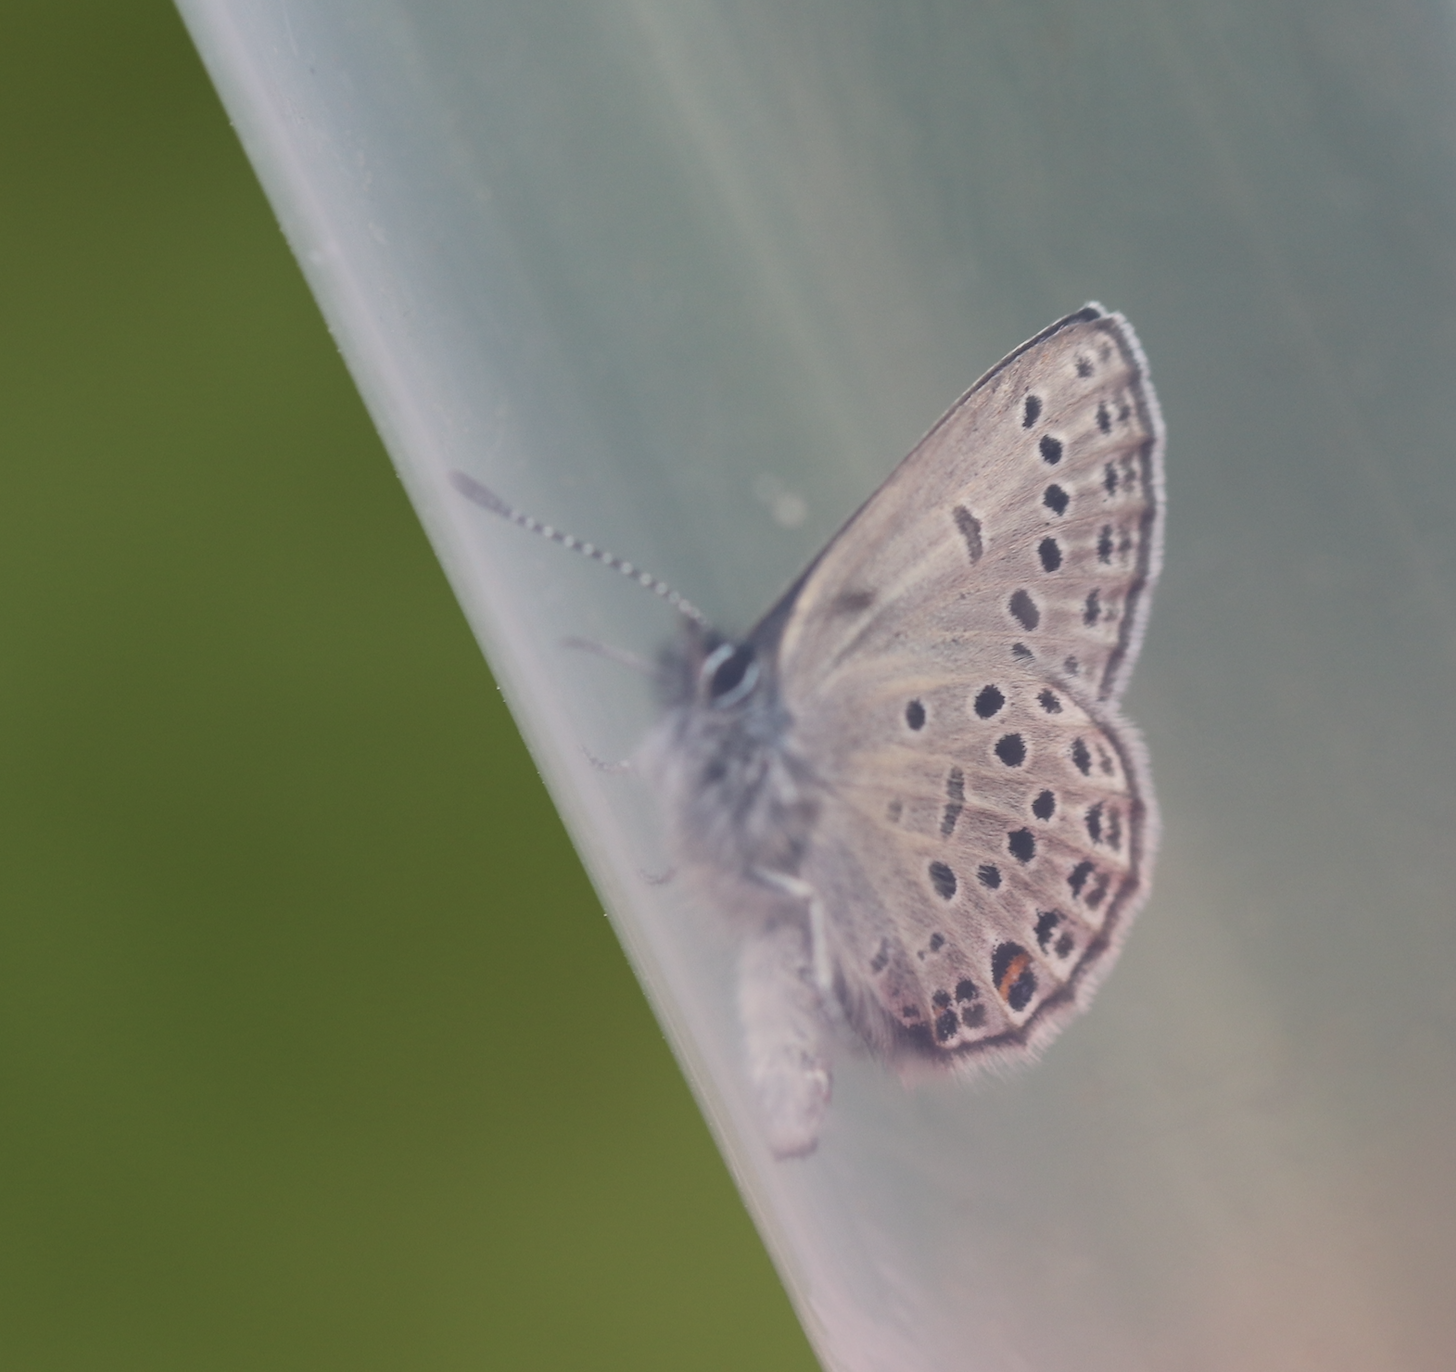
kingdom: Animalia
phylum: Arthropoda
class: Insecta
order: Lepidoptera
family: Lycaenidae
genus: Vacciniina
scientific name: Vacciniina optilete
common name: Cranberry blue
